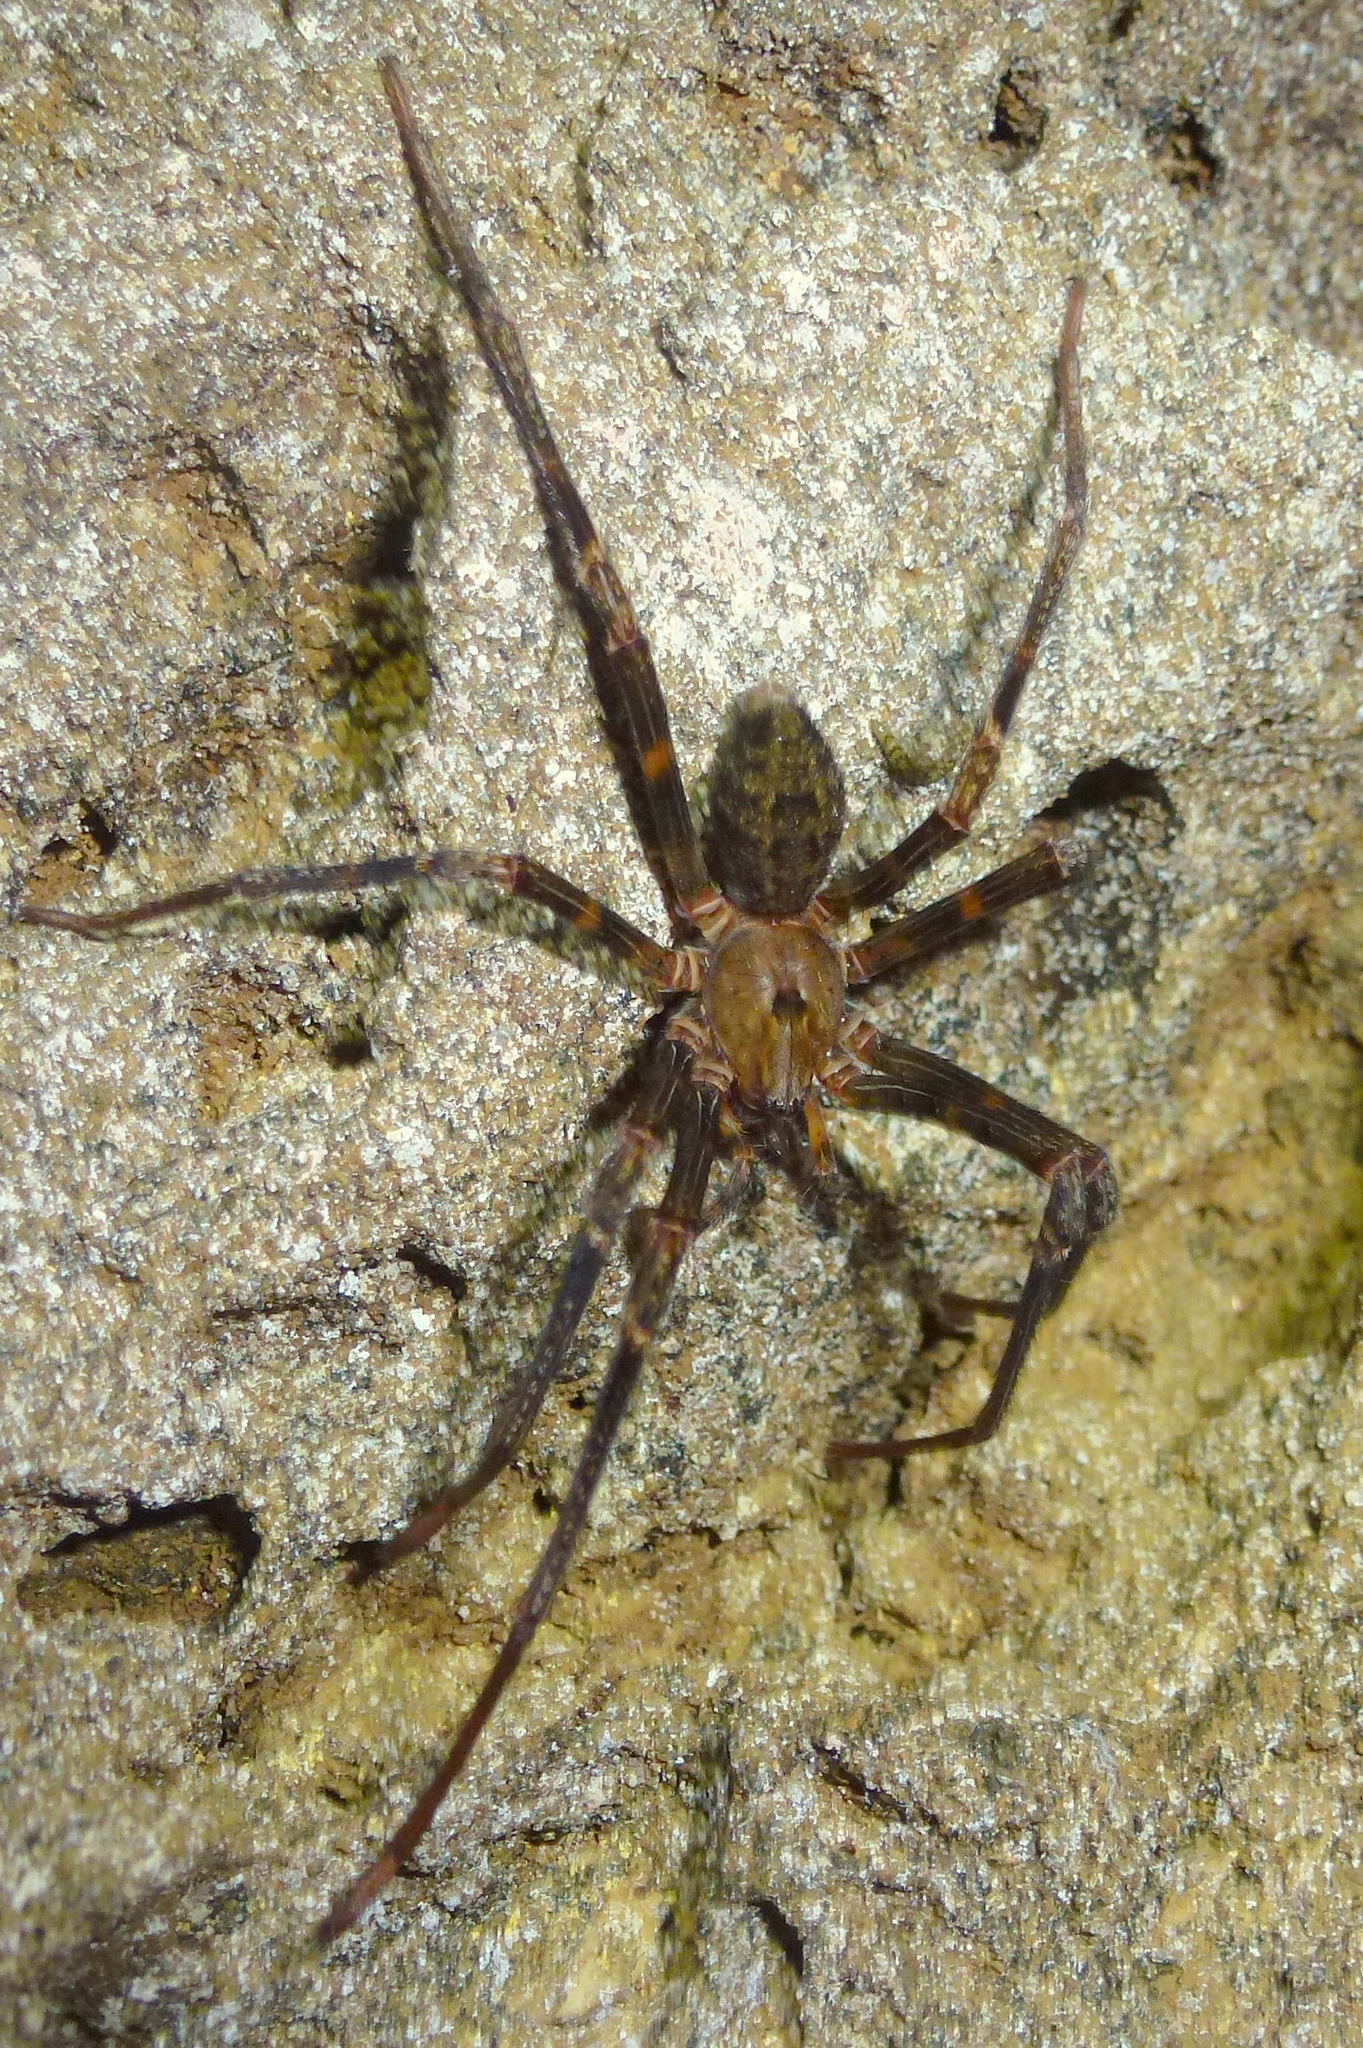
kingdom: Animalia
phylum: Arthropoda
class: Arachnida
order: Araneae
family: Gradungulidae
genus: Spelungula
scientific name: Spelungula cavernicola
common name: Nelson cave spider
